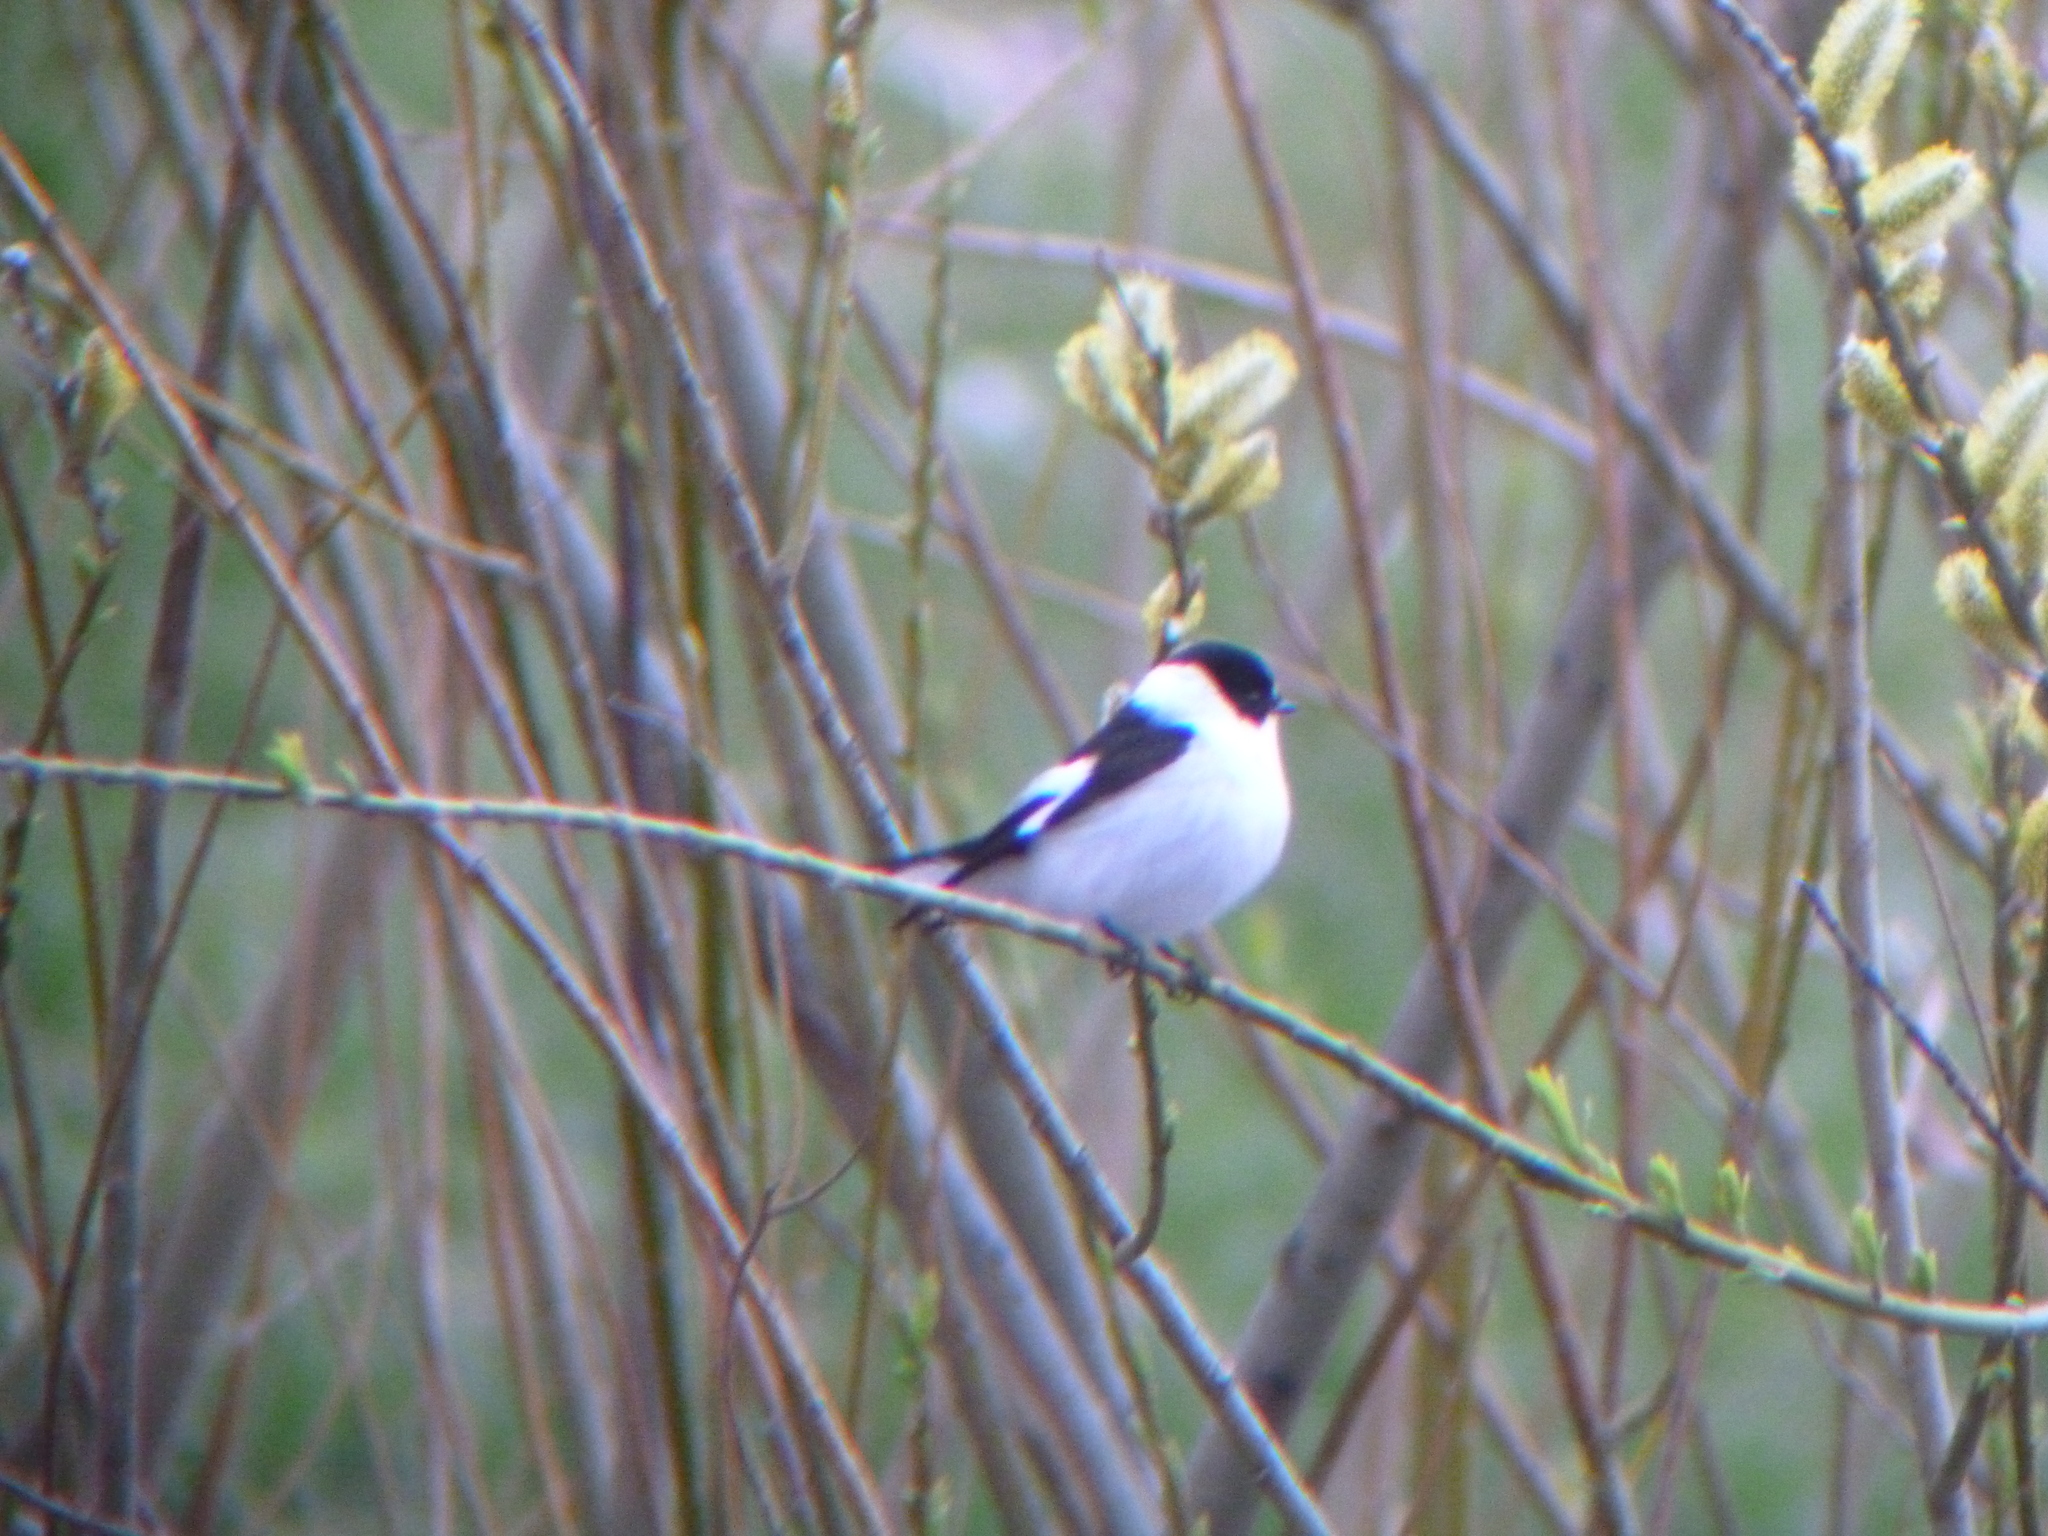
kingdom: Animalia
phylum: Chordata
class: Aves
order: Passeriformes
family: Muscicapidae
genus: Ficedula
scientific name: Ficedula albicollis
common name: Collared flycatcher
